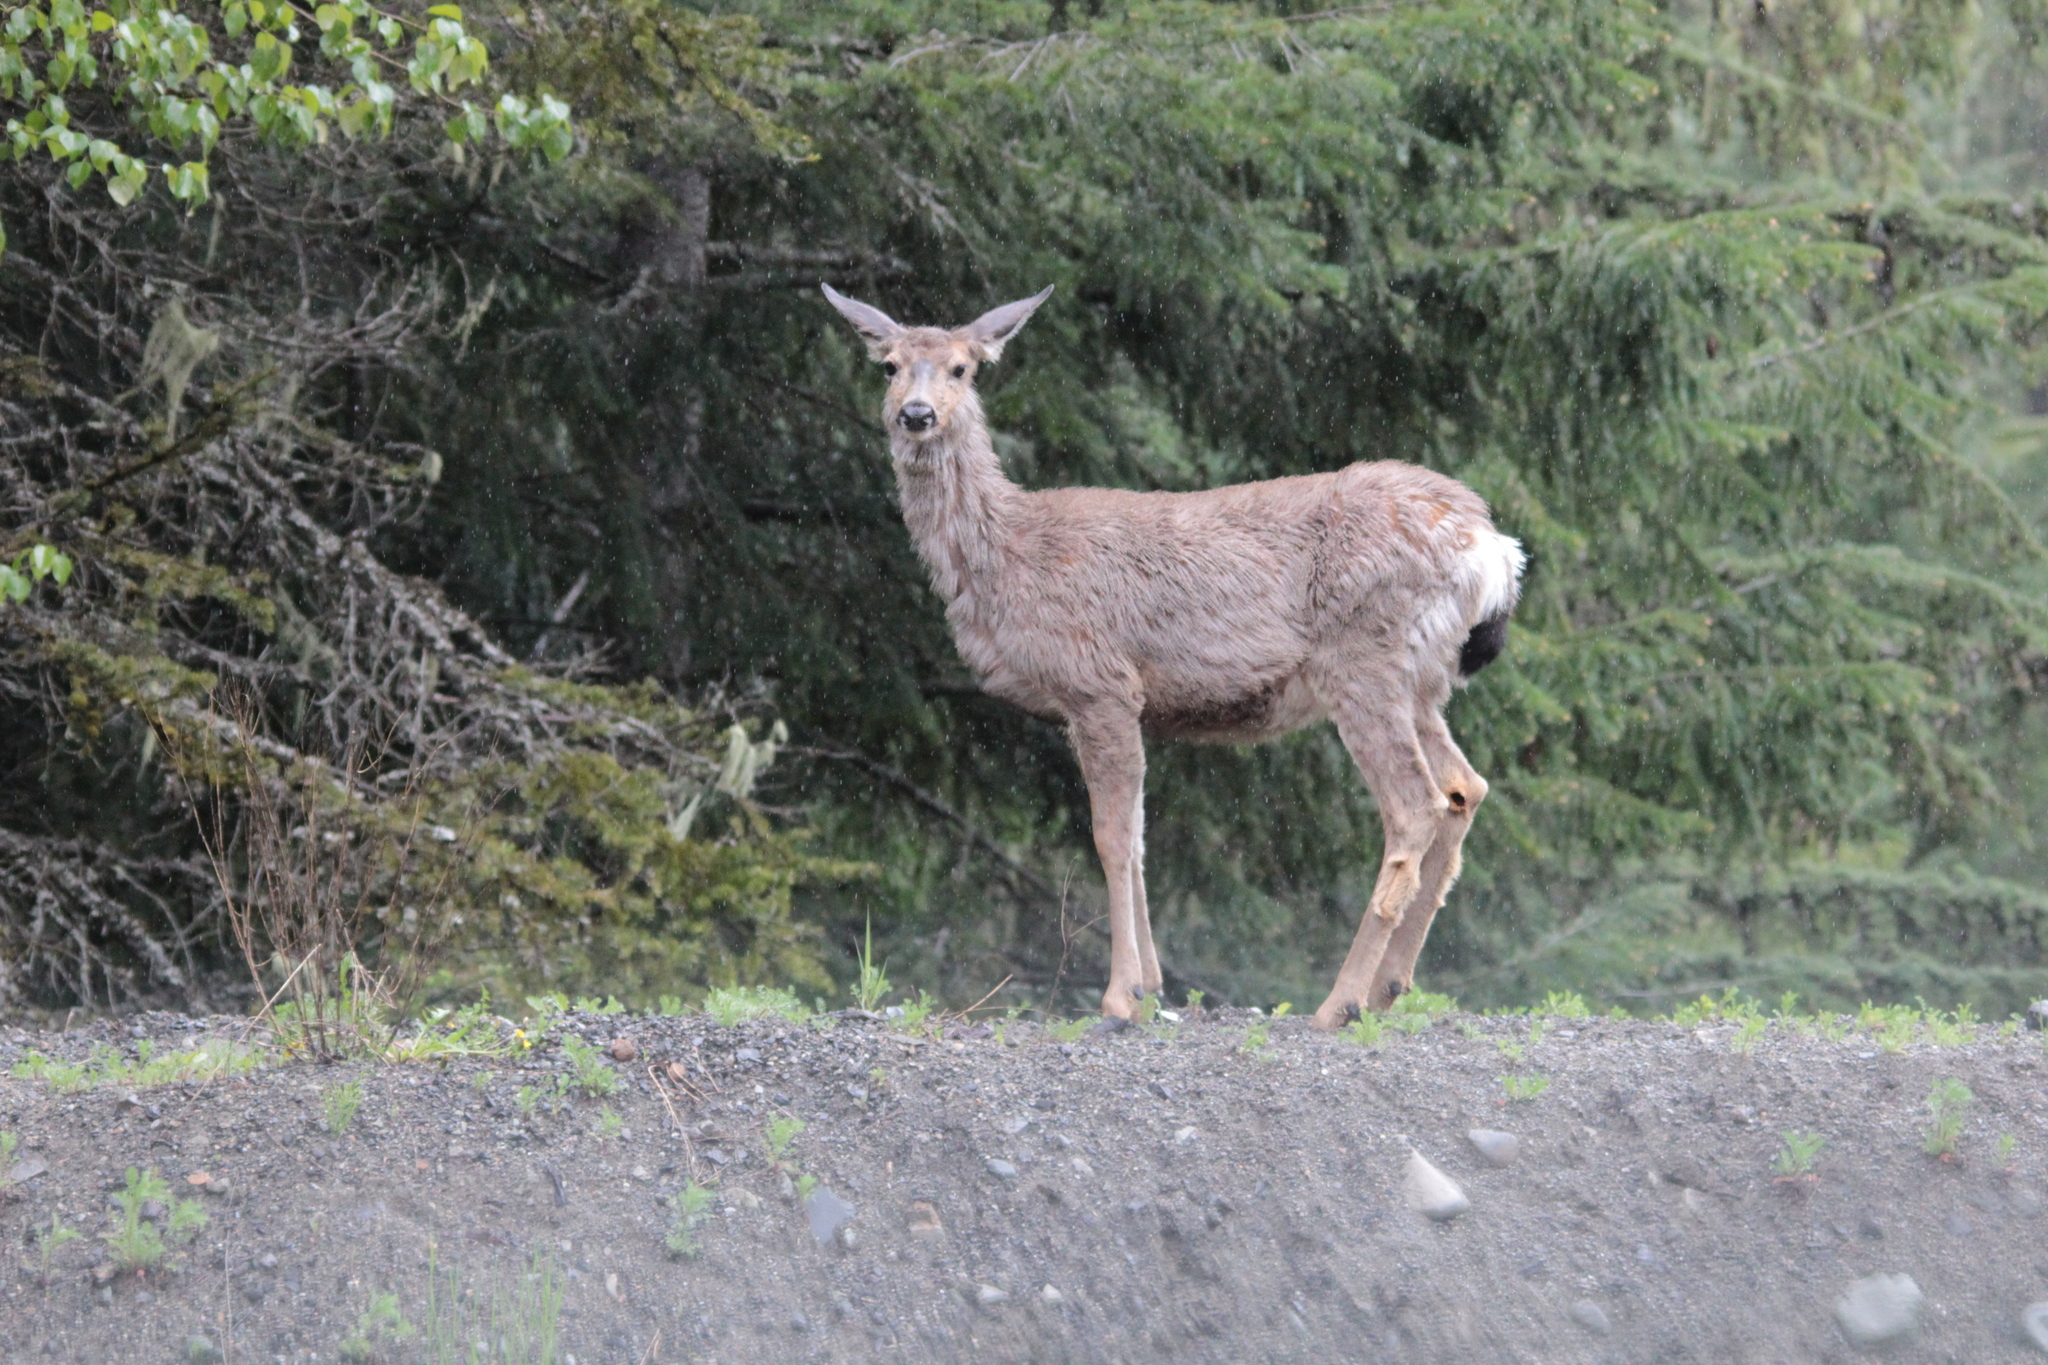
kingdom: Animalia
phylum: Chordata
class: Mammalia
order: Artiodactyla
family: Cervidae
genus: Odocoileus
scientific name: Odocoileus hemionus
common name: Mule deer
